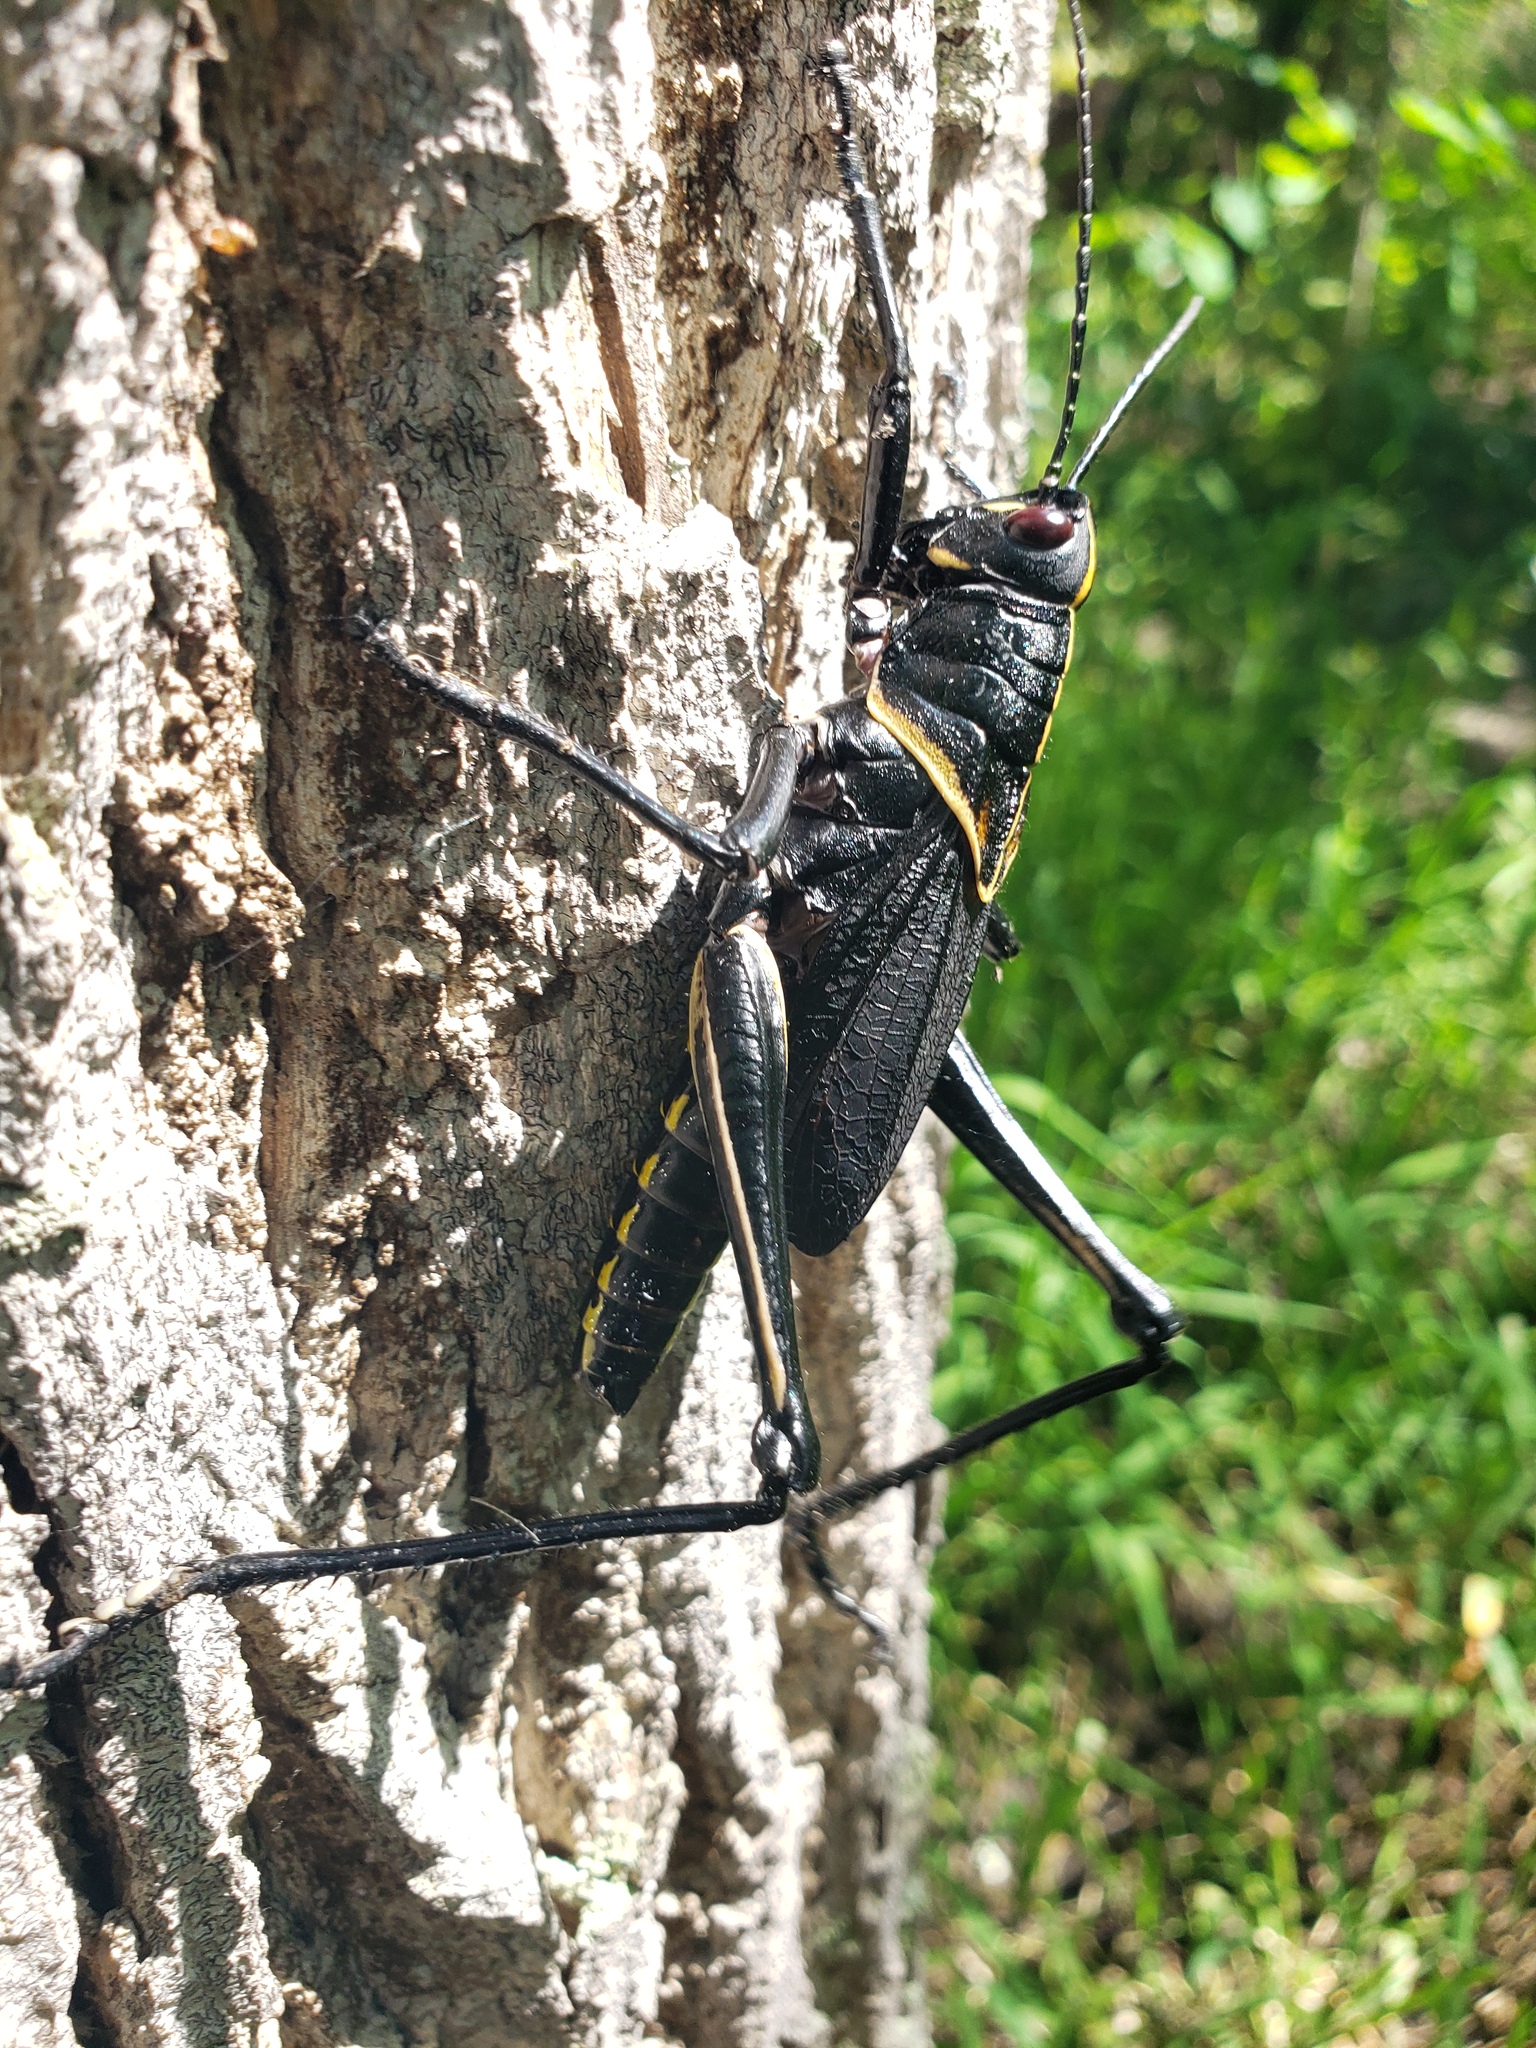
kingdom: Animalia
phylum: Arthropoda
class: Insecta
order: Orthoptera
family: Romaleidae
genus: Romalea
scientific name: Romalea microptera
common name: Eastern lubber grasshopper
